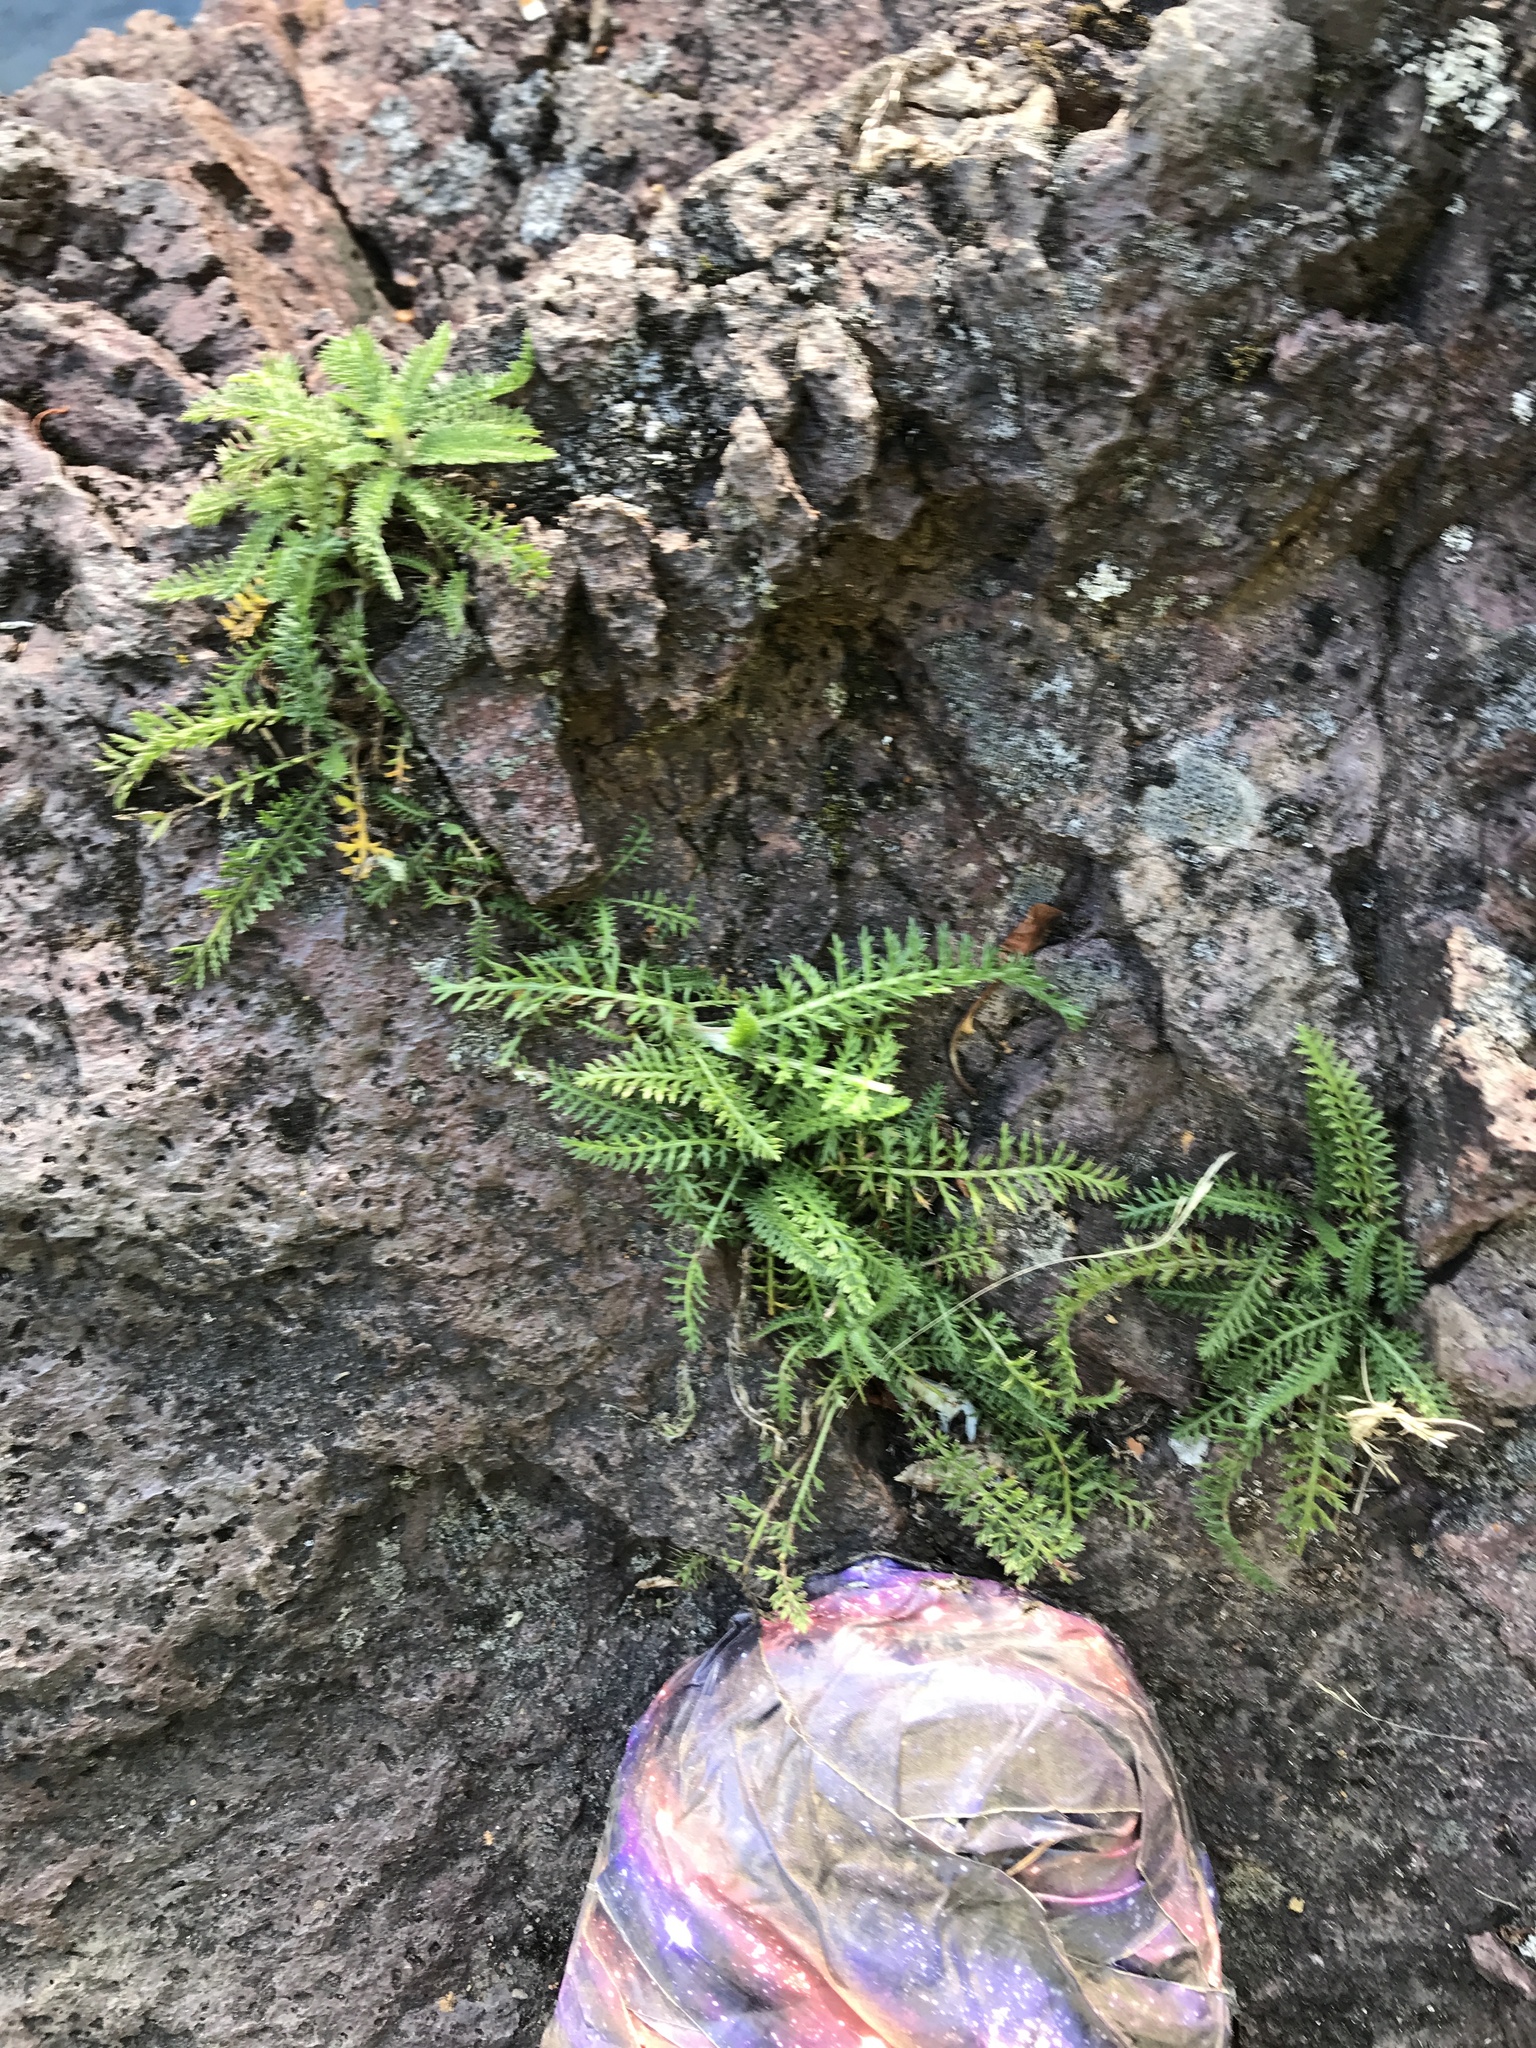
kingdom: Plantae
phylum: Tracheophyta
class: Magnoliopsida
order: Asterales
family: Asteraceae
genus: Achillea
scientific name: Achillea
